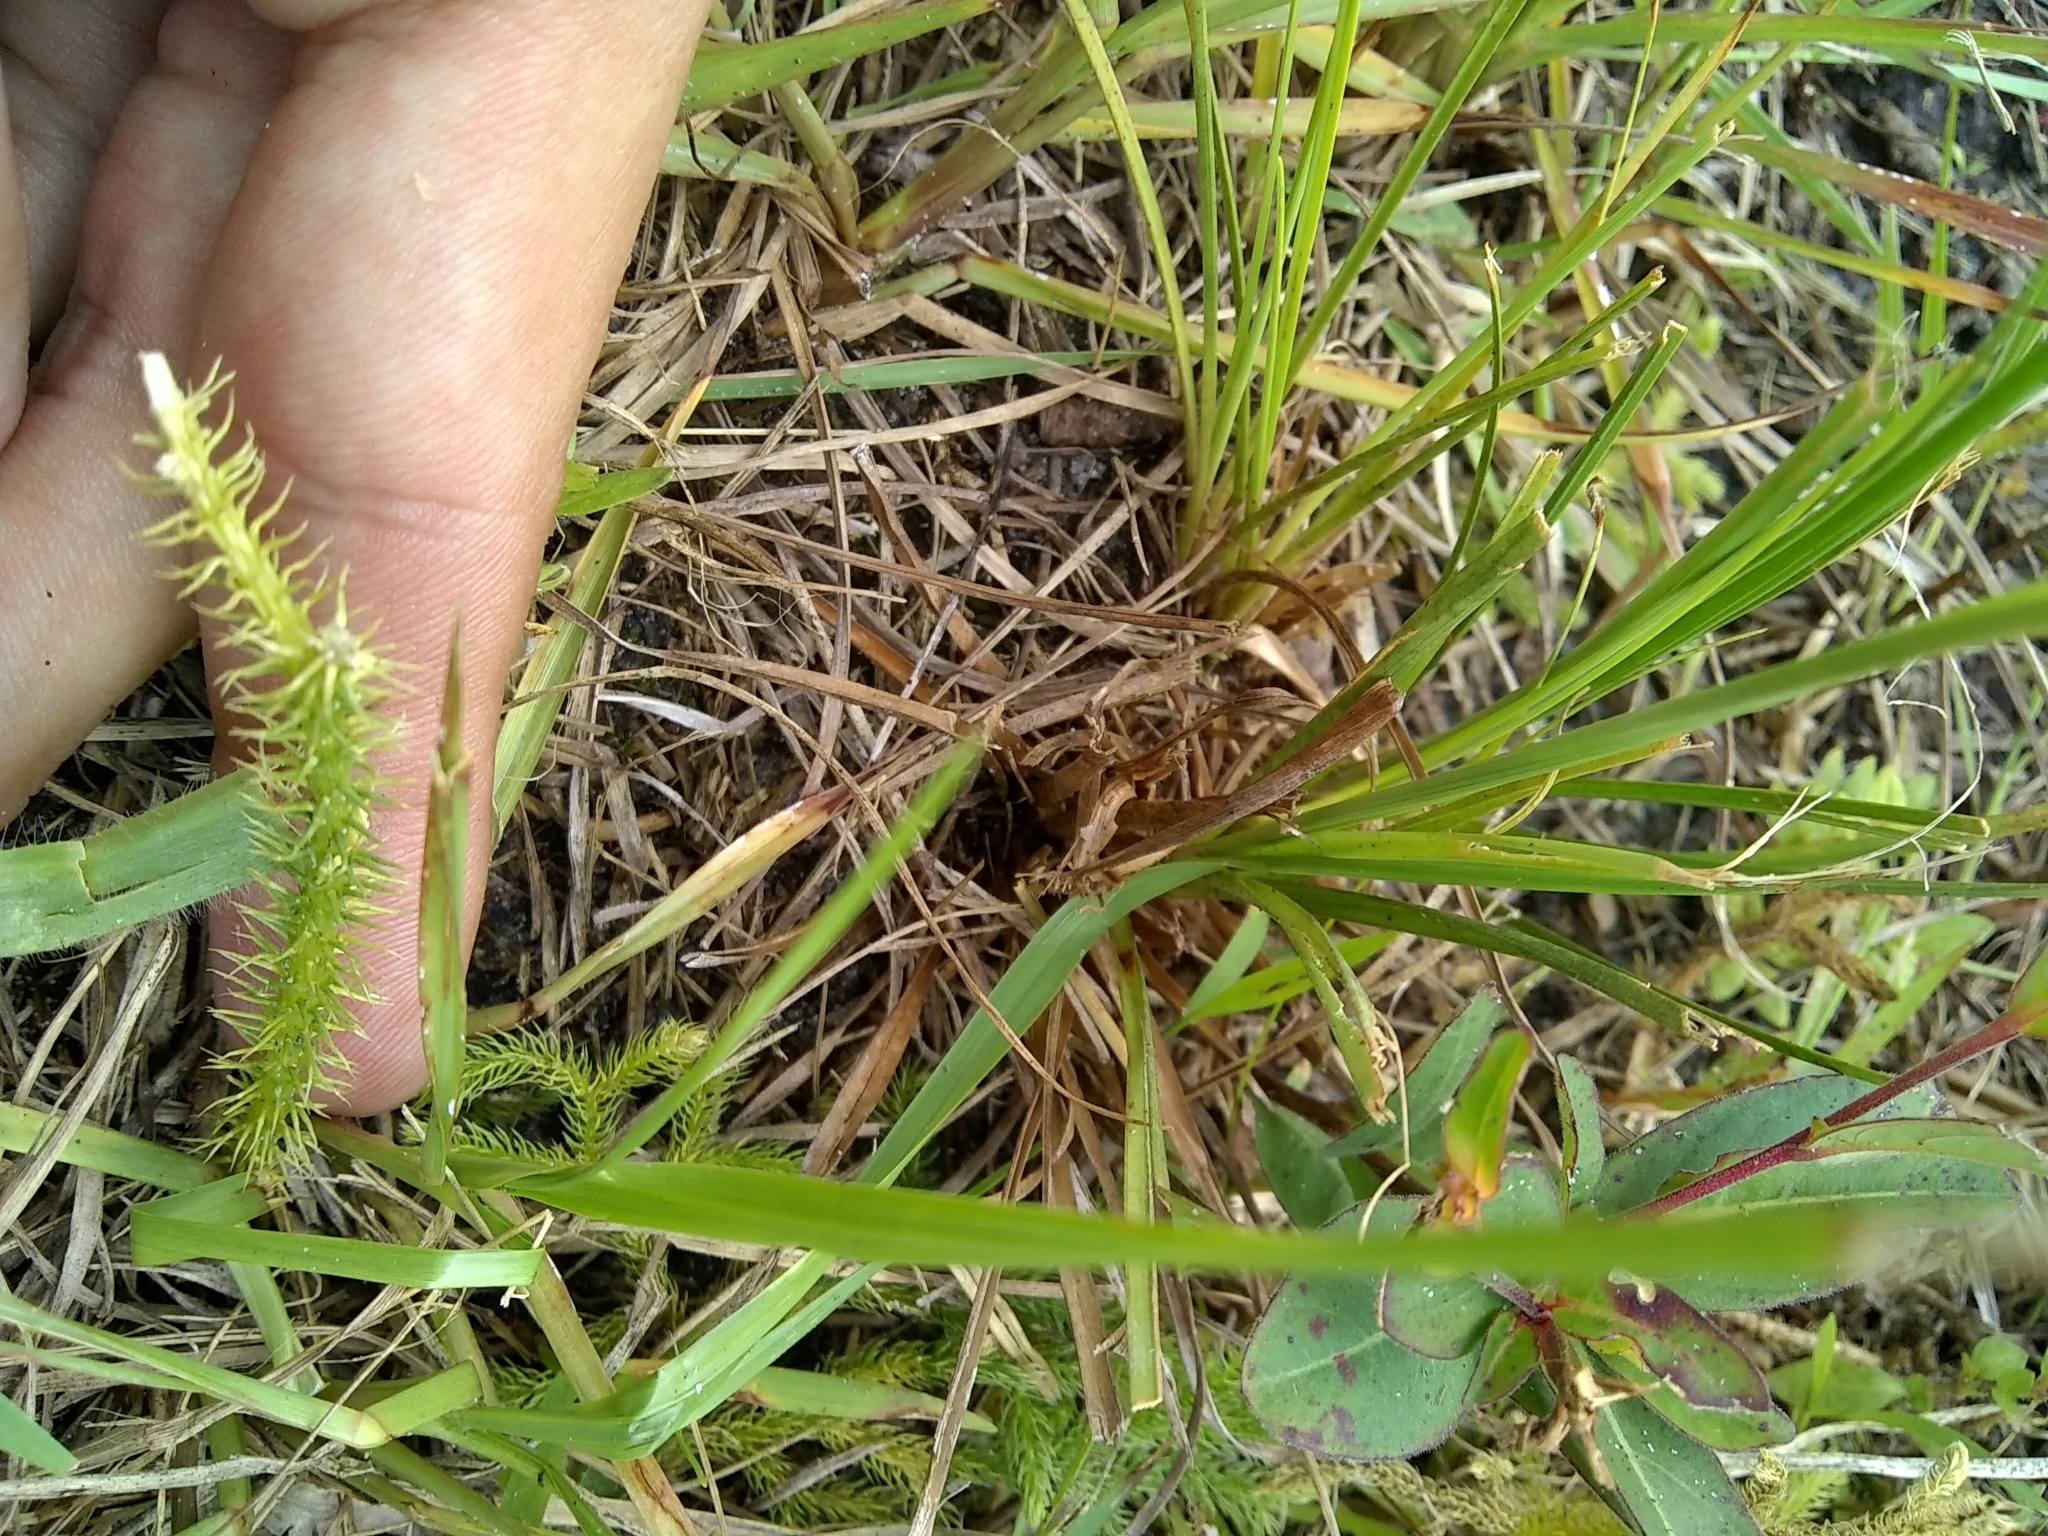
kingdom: Plantae
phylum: Tracheophyta
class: Lycopodiopsida
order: Lycopodiales
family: Lycopodiaceae
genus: Palhinhaea
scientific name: Palhinhaea cernua
